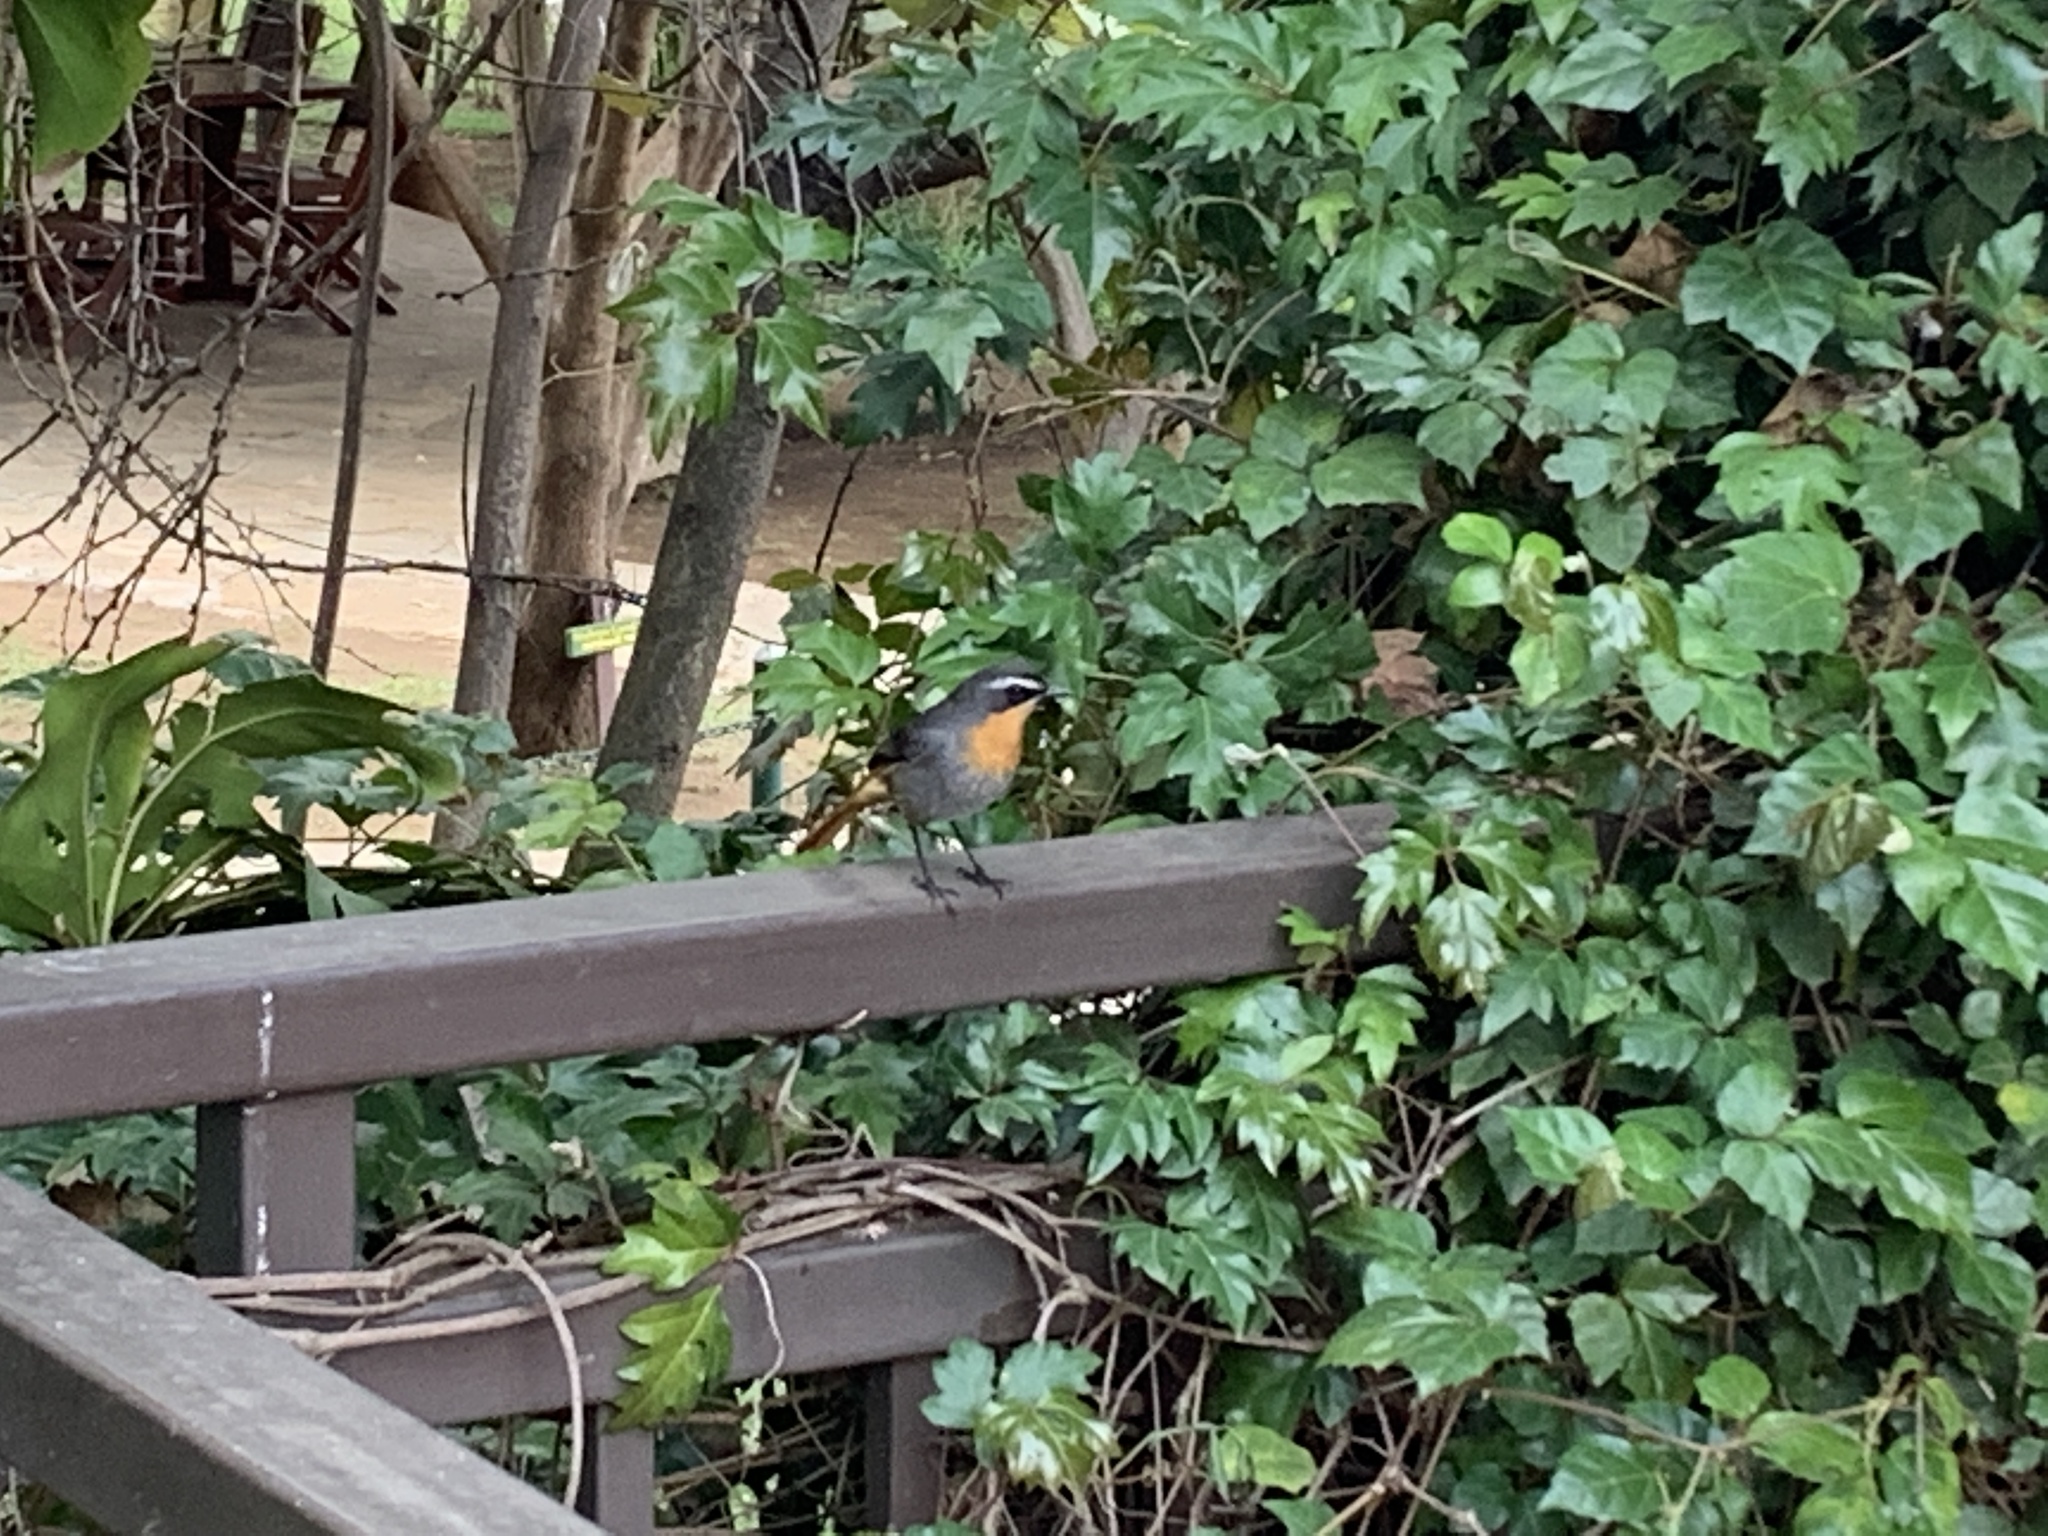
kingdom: Animalia
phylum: Chordata
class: Aves
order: Passeriformes
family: Muscicapidae
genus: Cossypha
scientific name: Cossypha caffra
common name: Cape robin-chat
